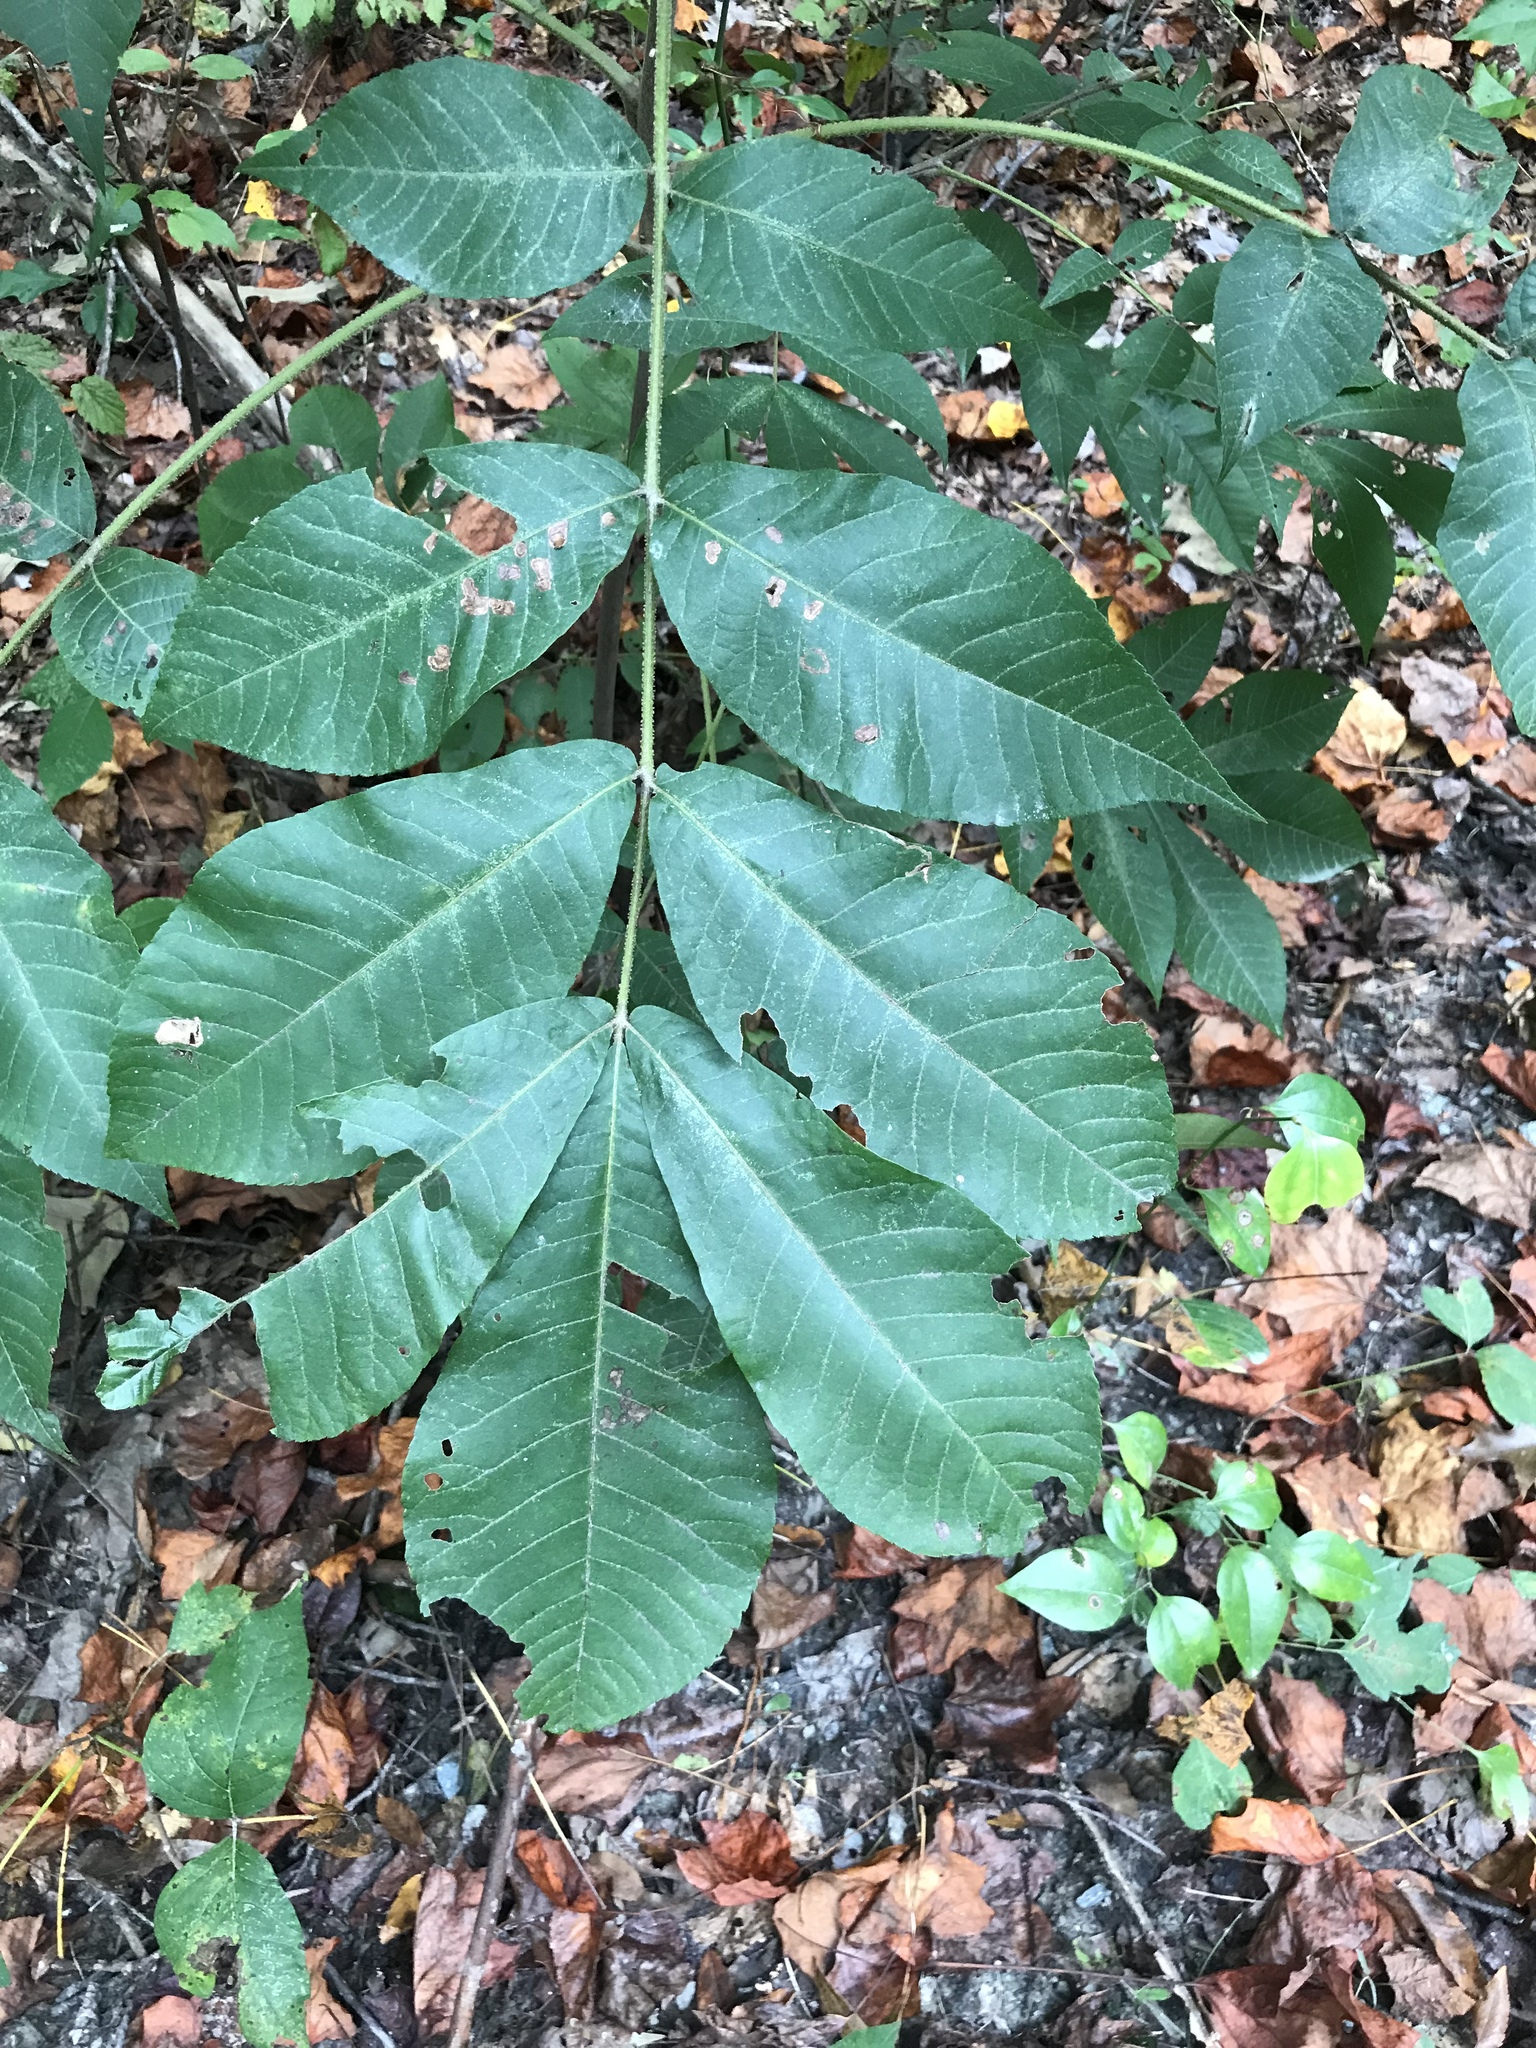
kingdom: Plantae
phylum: Tracheophyta
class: Magnoliopsida
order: Fagales
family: Juglandaceae
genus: Carya
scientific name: Carya alba
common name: Mockernut hickory
